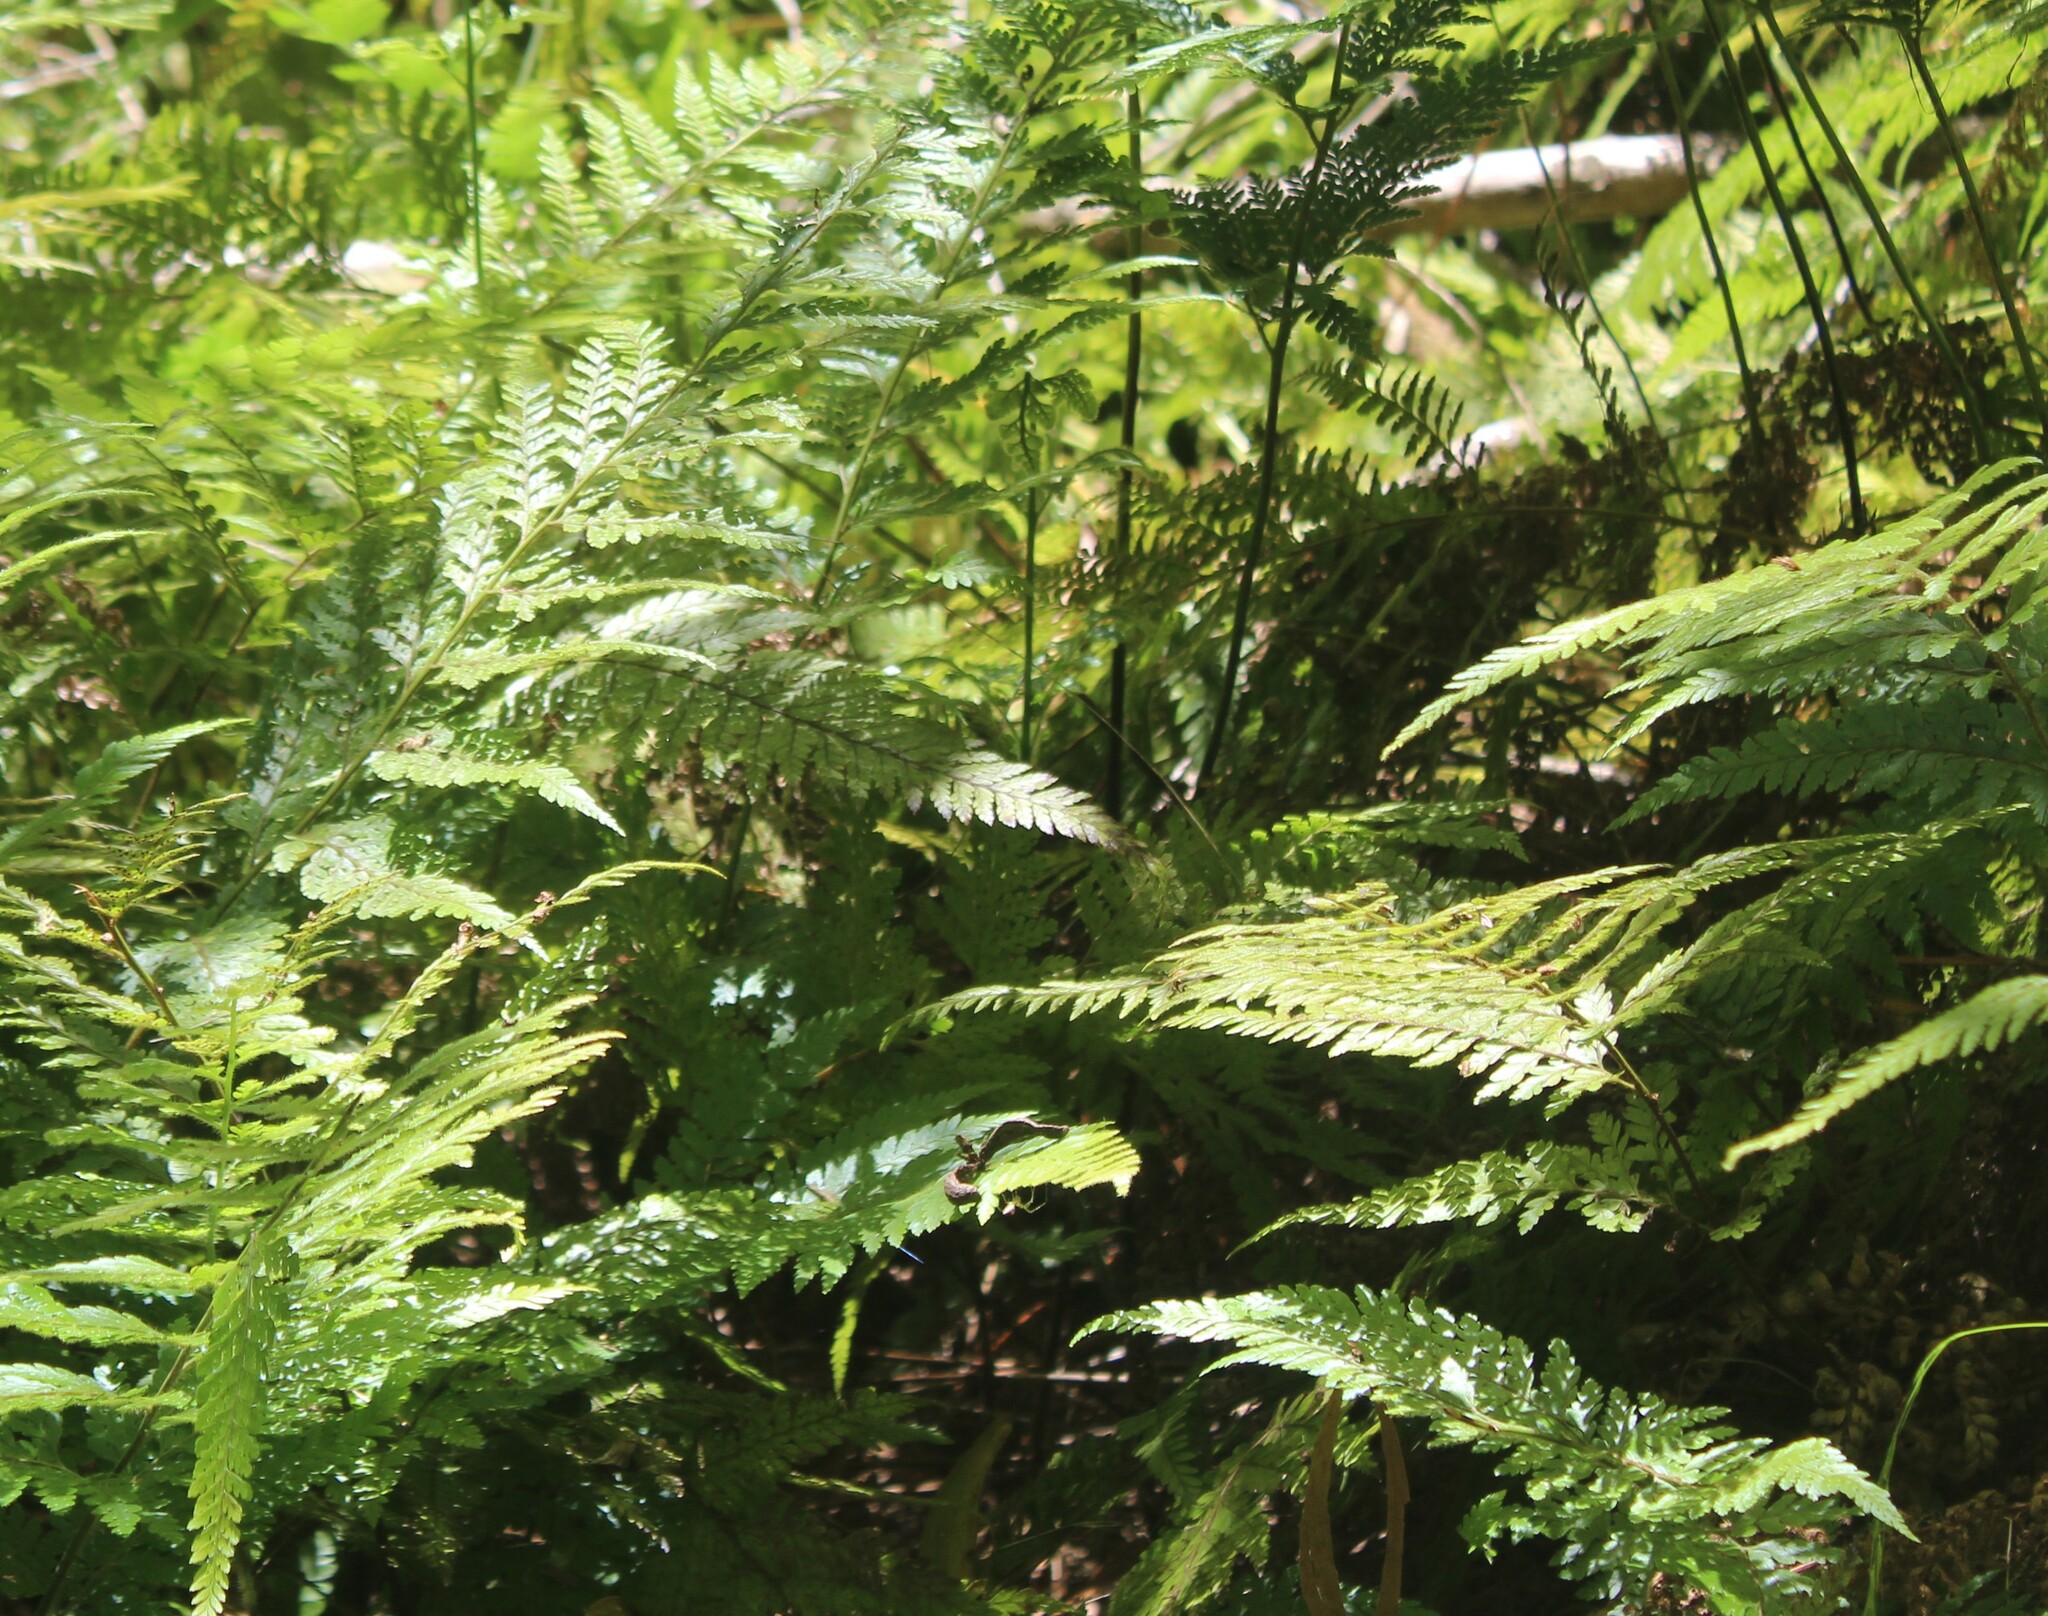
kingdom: Plantae
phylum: Tracheophyta
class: Polypodiopsida
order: Polypodiales
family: Dennstaedtiaceae
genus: Microlepia
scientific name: Microlepia setosa
